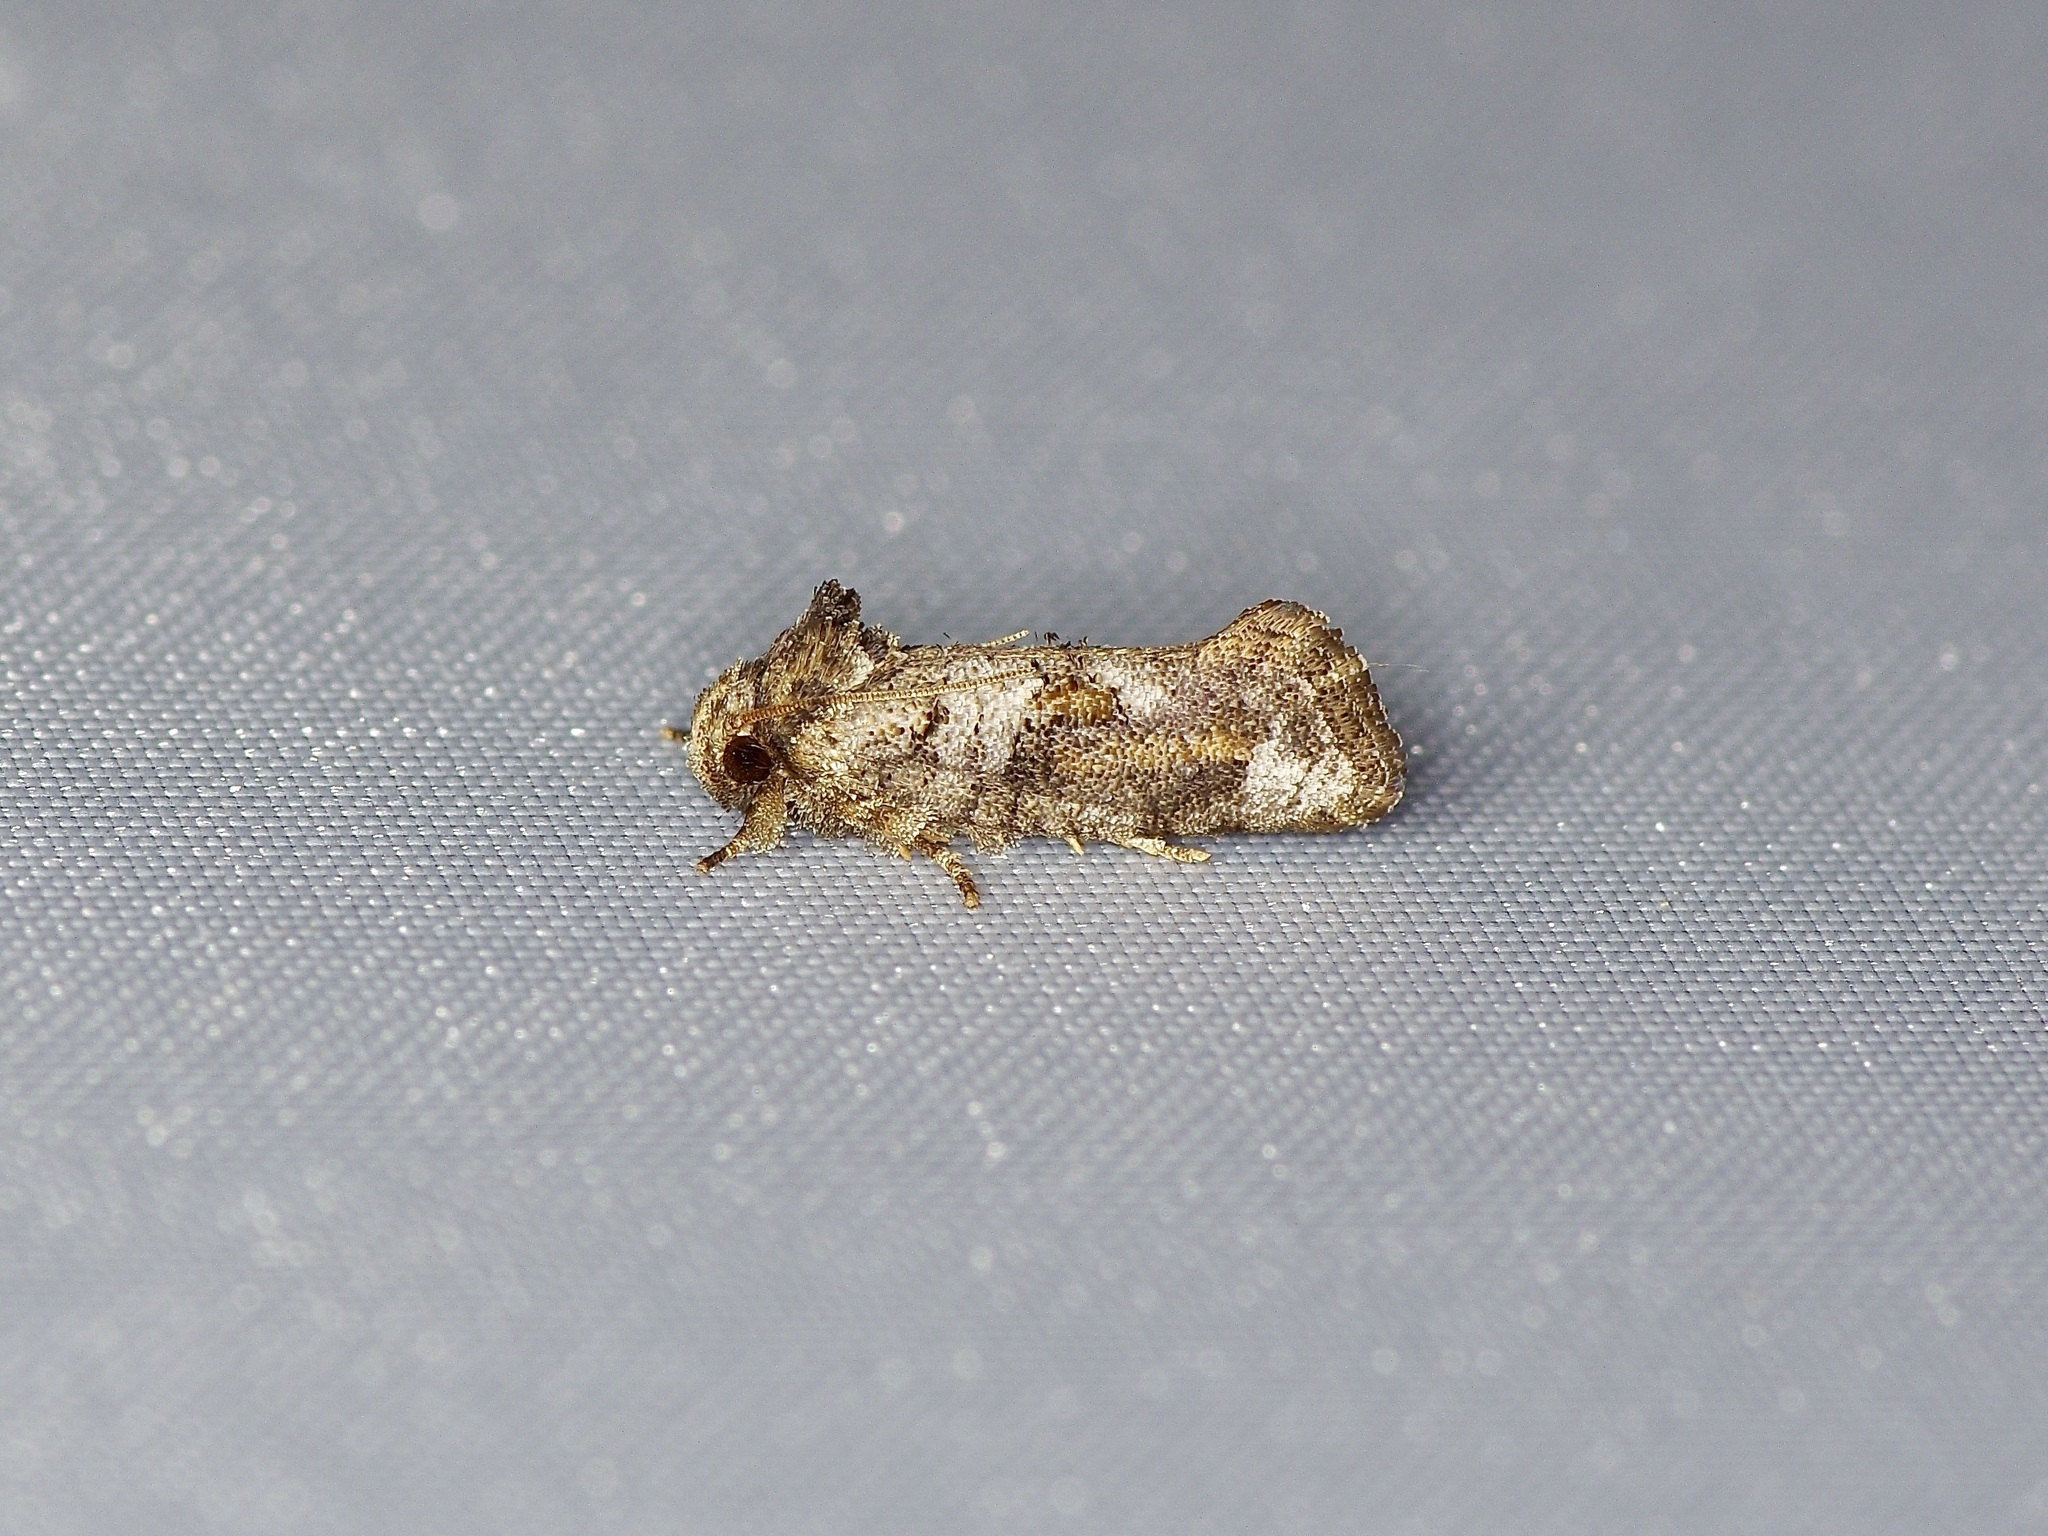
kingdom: Animalia
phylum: Arthropoda
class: Insecta
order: Lepidoptera
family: Tineidae
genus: Acrolophus
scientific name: Acrolophus piger
